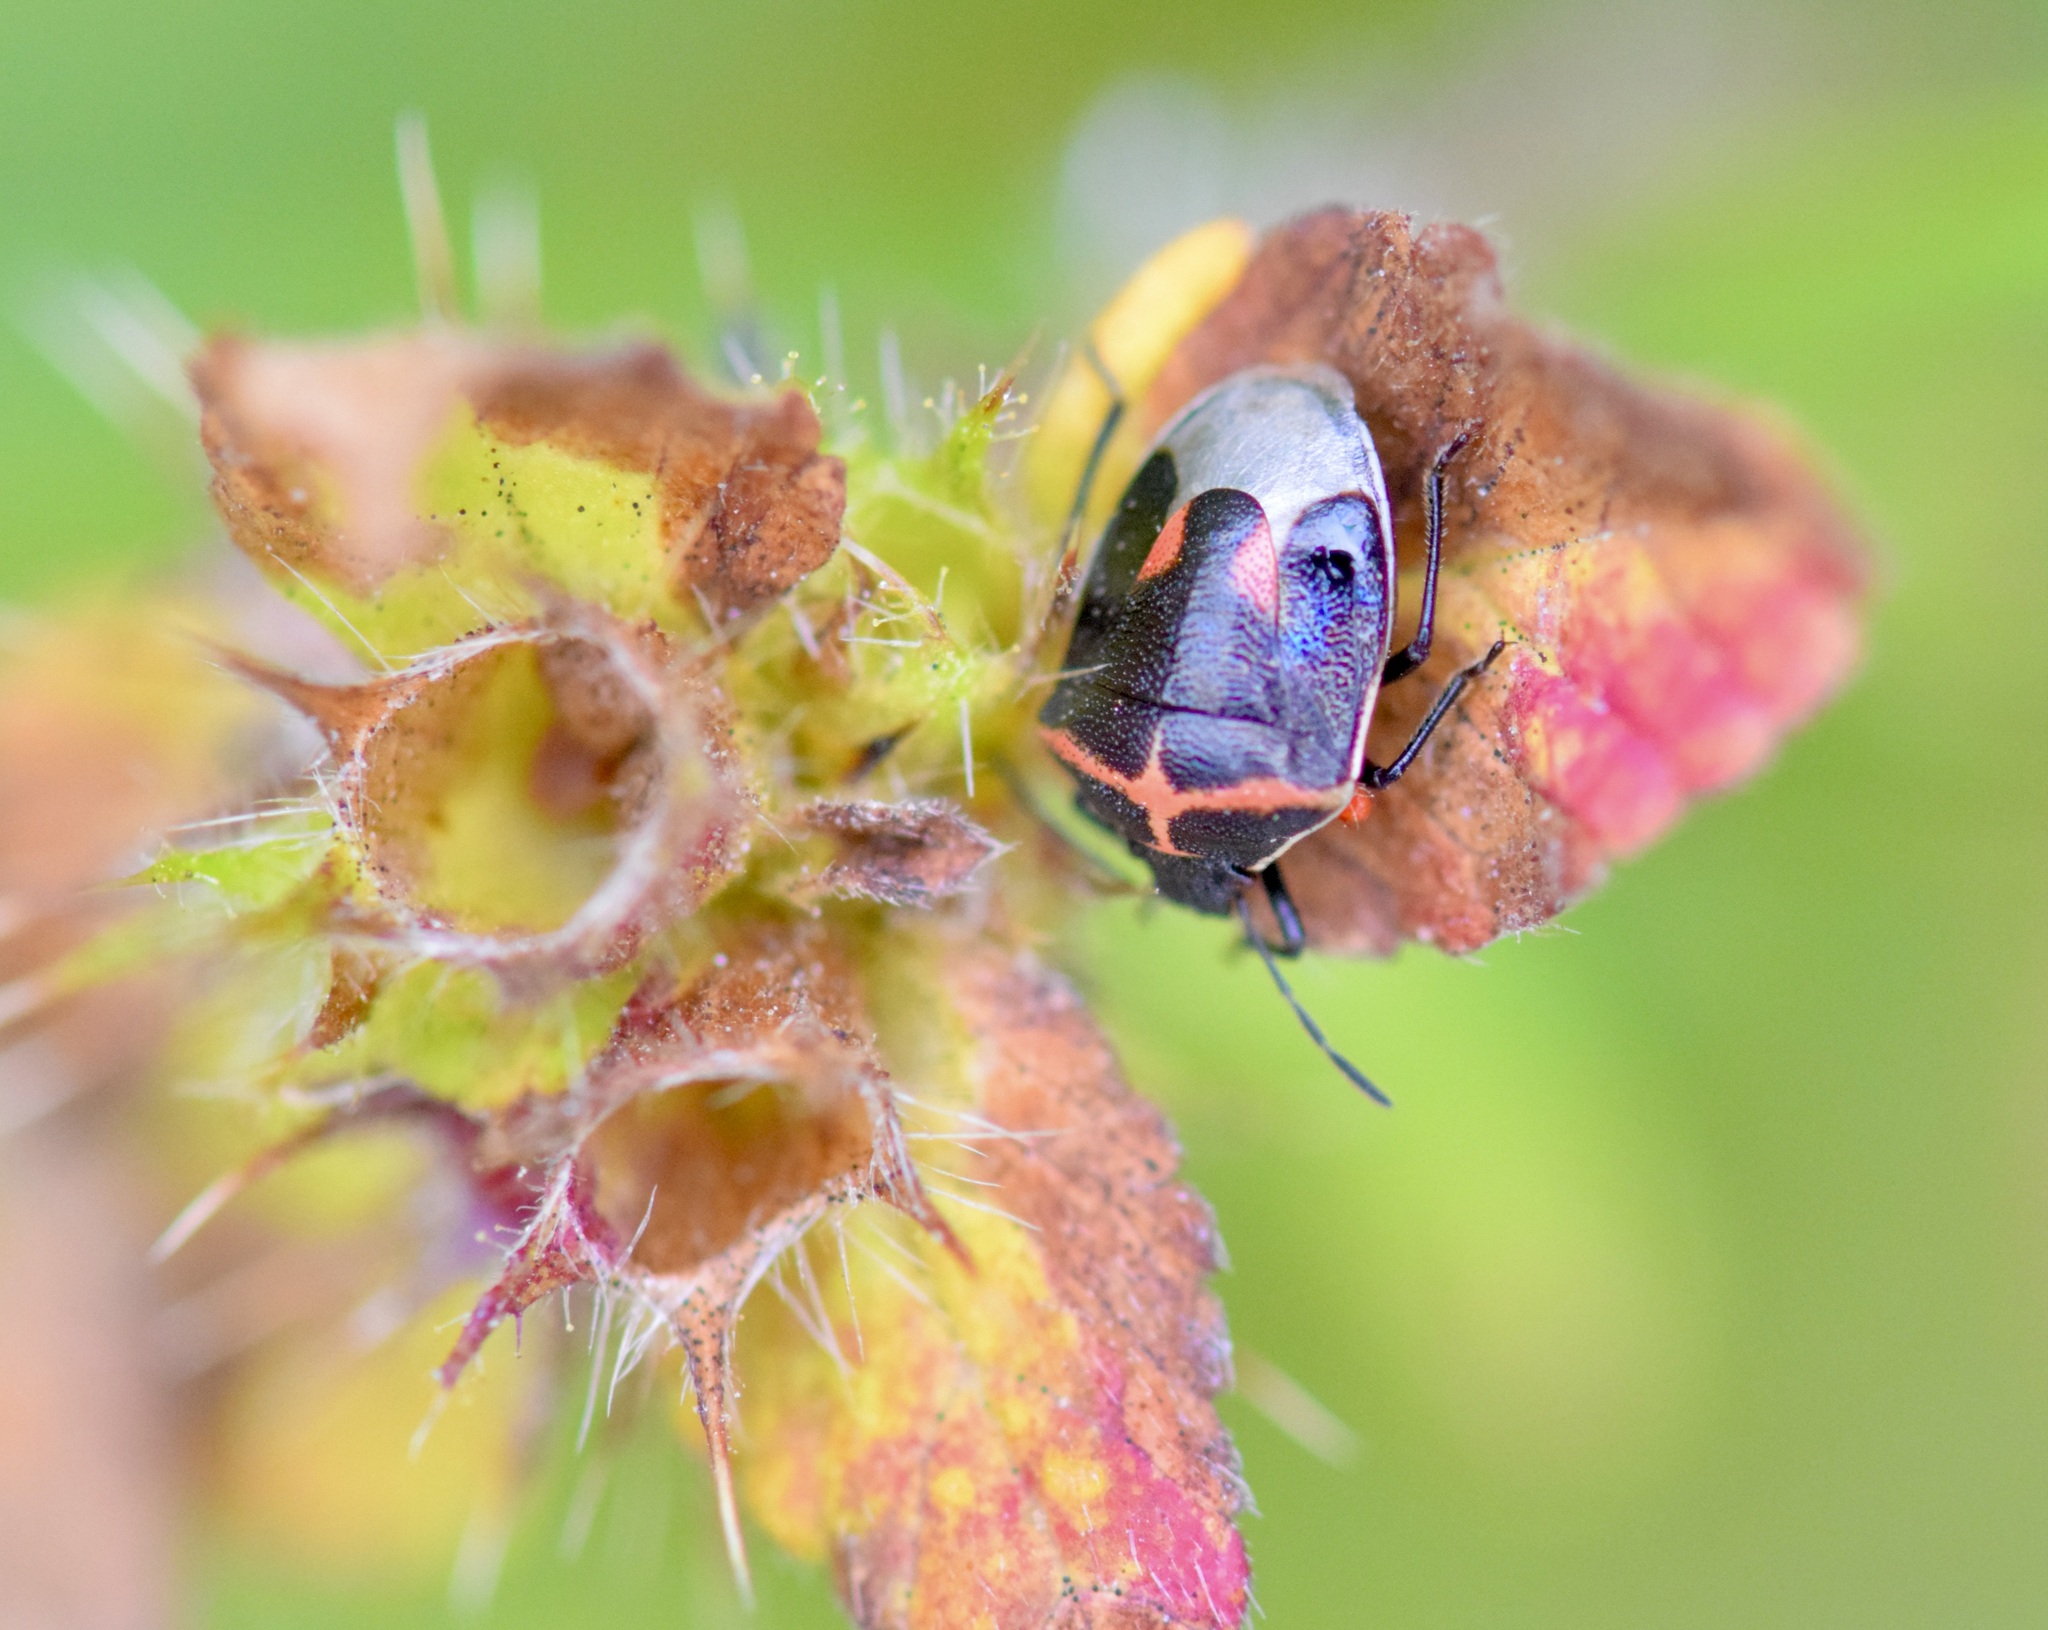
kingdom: Animalia
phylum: Arthropoda
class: Insecta
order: Hemiptera
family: Pentatomidae
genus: Cosmopepla
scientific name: Cosmopepla lintneriana
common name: Twice-stabbed stink bug
